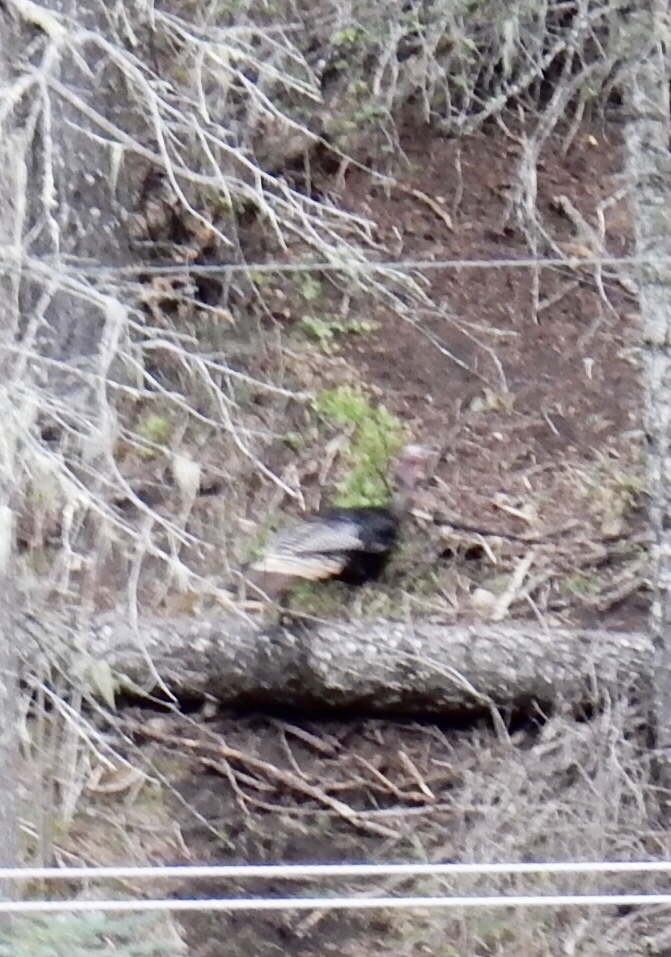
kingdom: Animalia
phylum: Chordata
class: Aves
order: Galliformes
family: Phasianidae
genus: Meleagris
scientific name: Meleagris gallopavo
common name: Wild turkey
